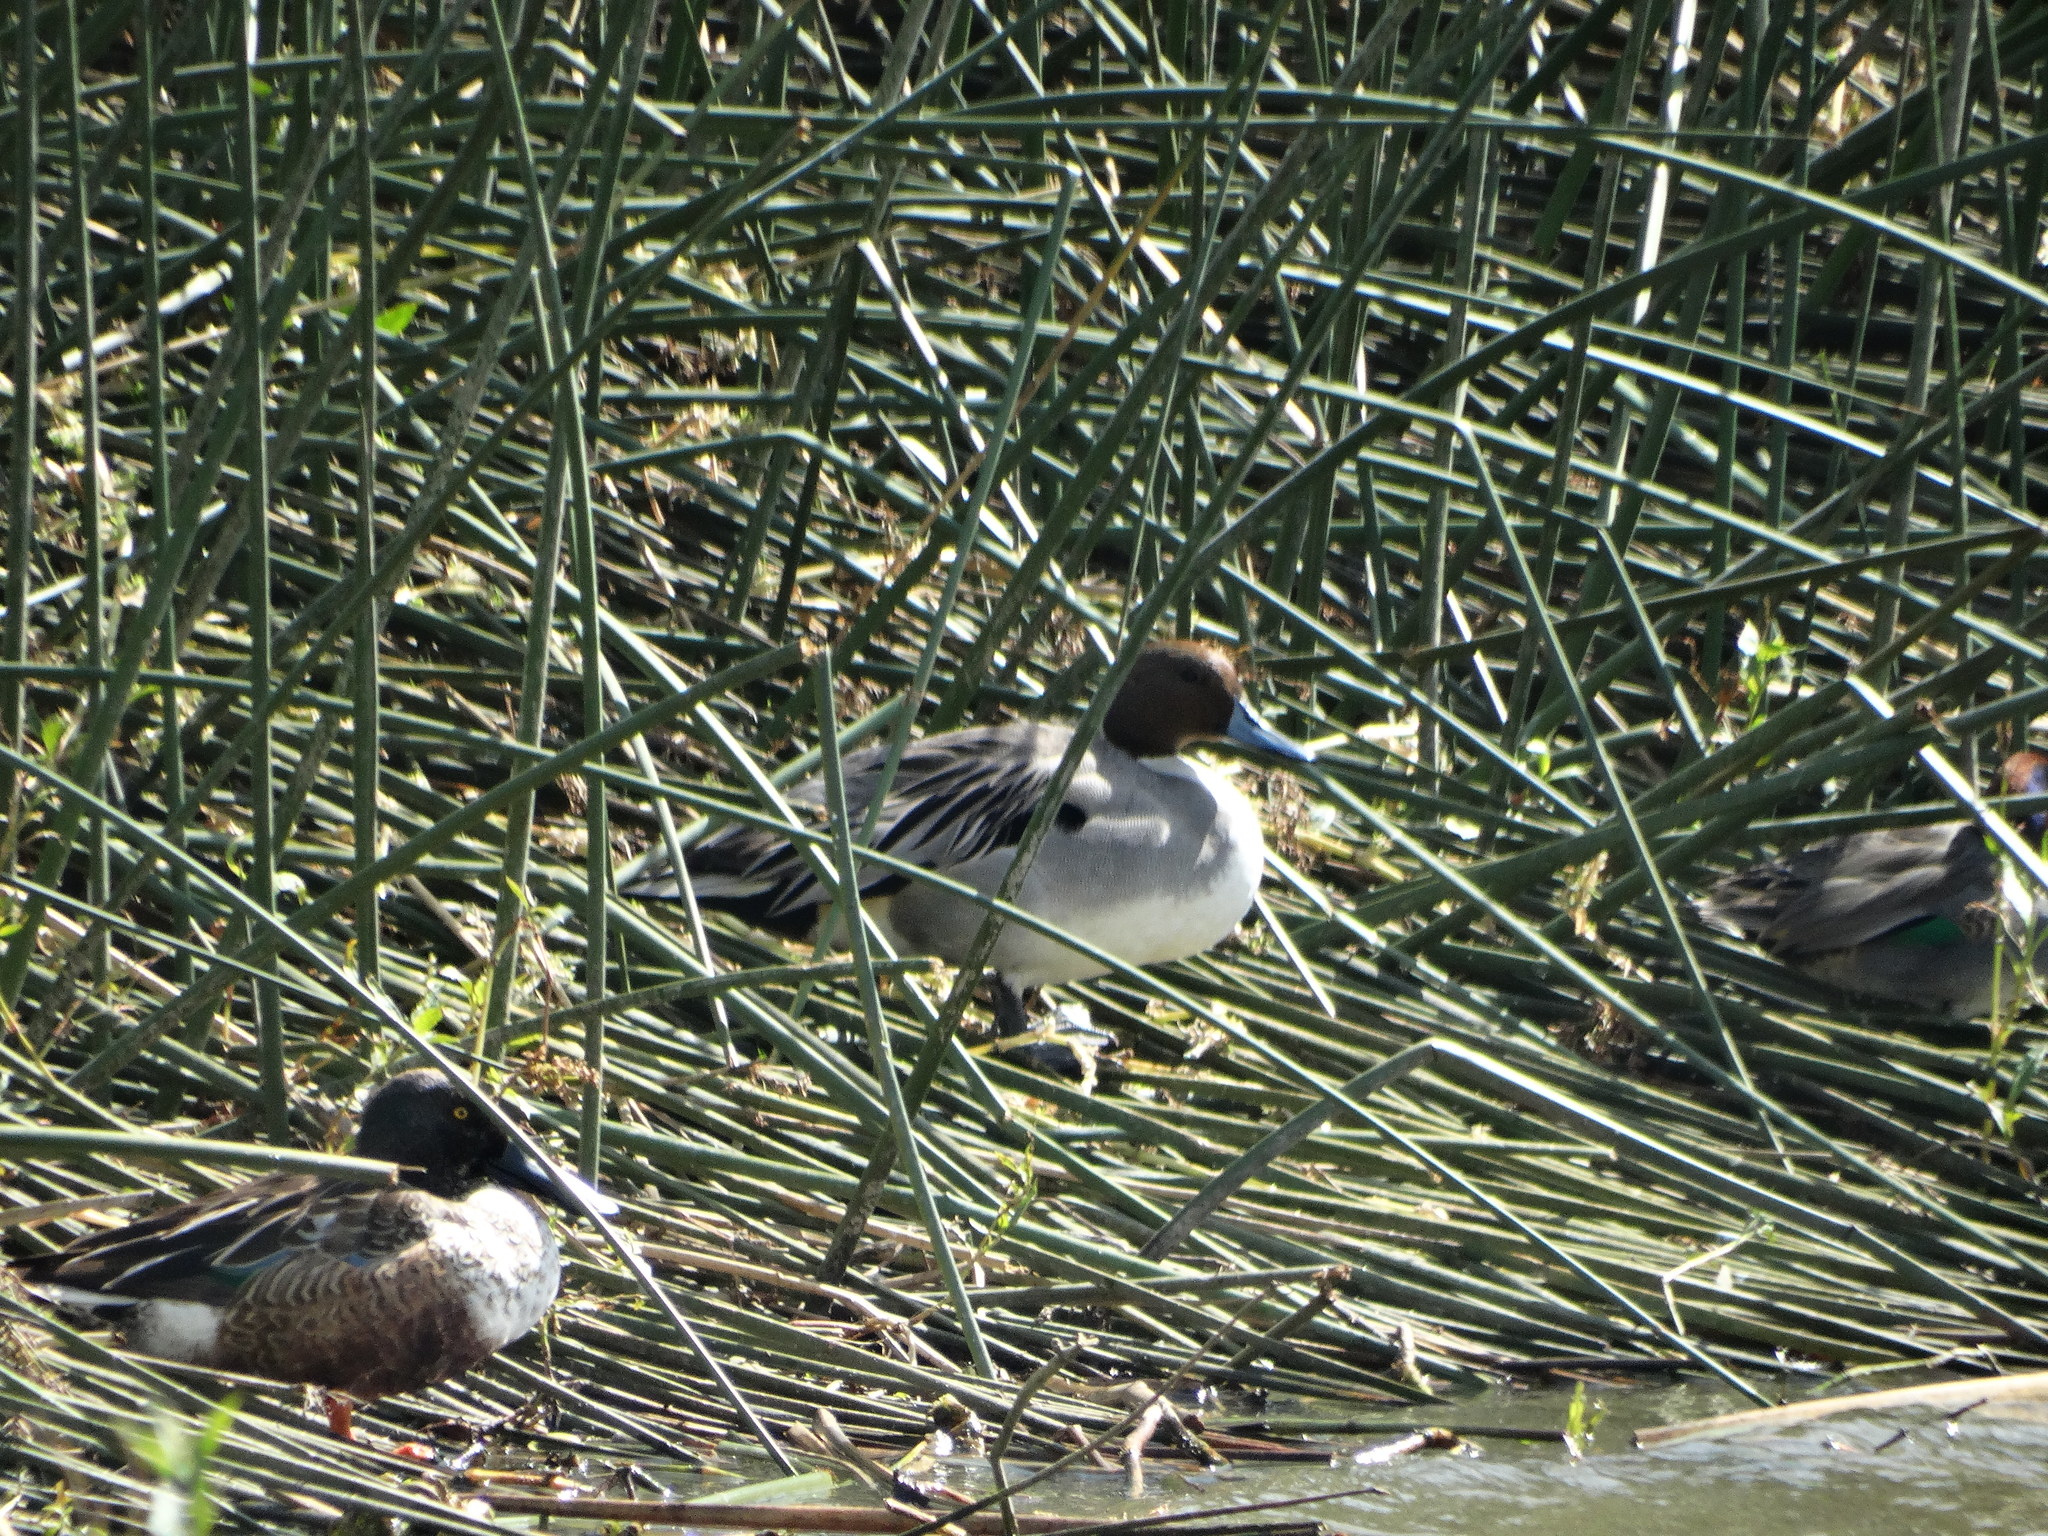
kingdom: Animalia
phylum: Chordata
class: Aves
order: Anseriformes
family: Anatidae
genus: Anas
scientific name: Anas acuta
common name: Northern pintail
